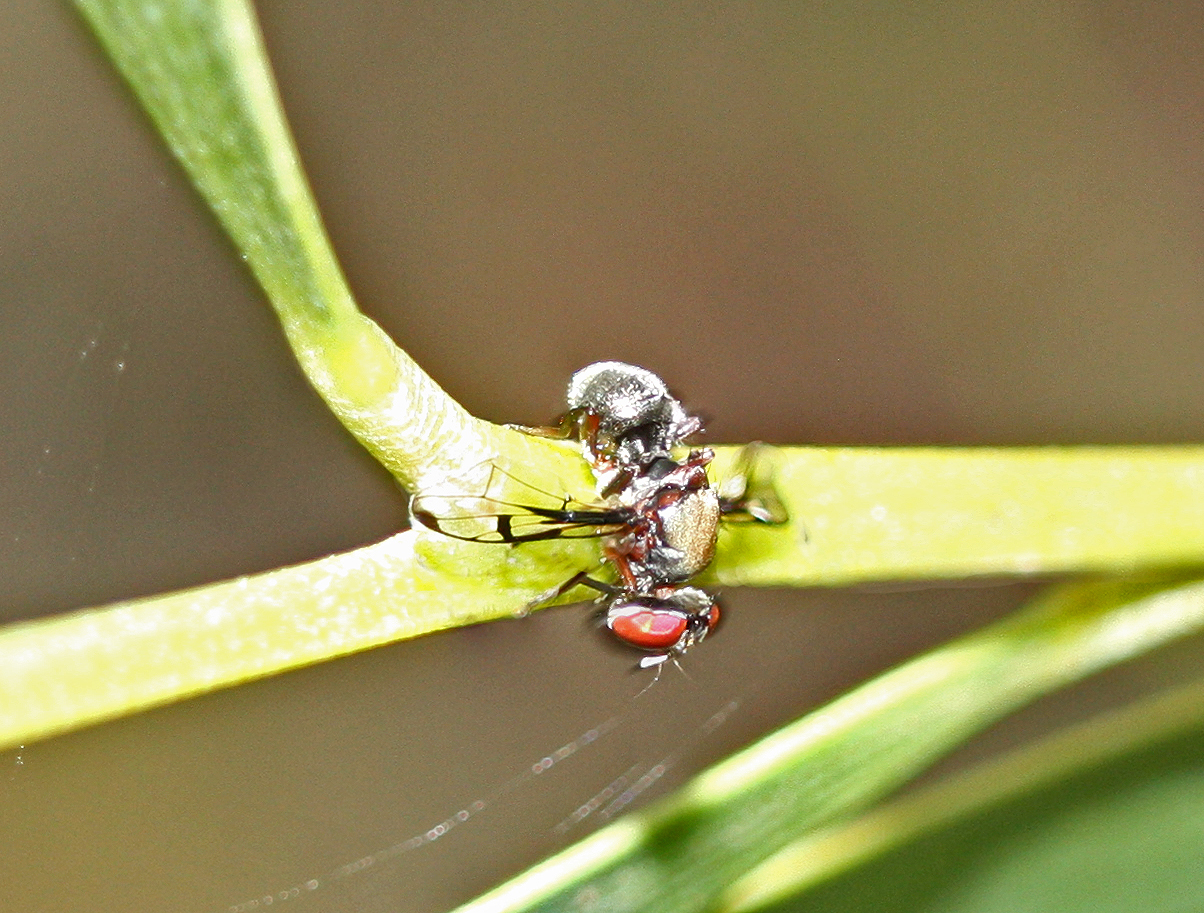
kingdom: Animalia
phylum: Arthropoda
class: Insecta
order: Diptera
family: Platystomatidae
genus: Pogonortalis
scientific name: Pogonortalis doclea
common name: Boatman fly
